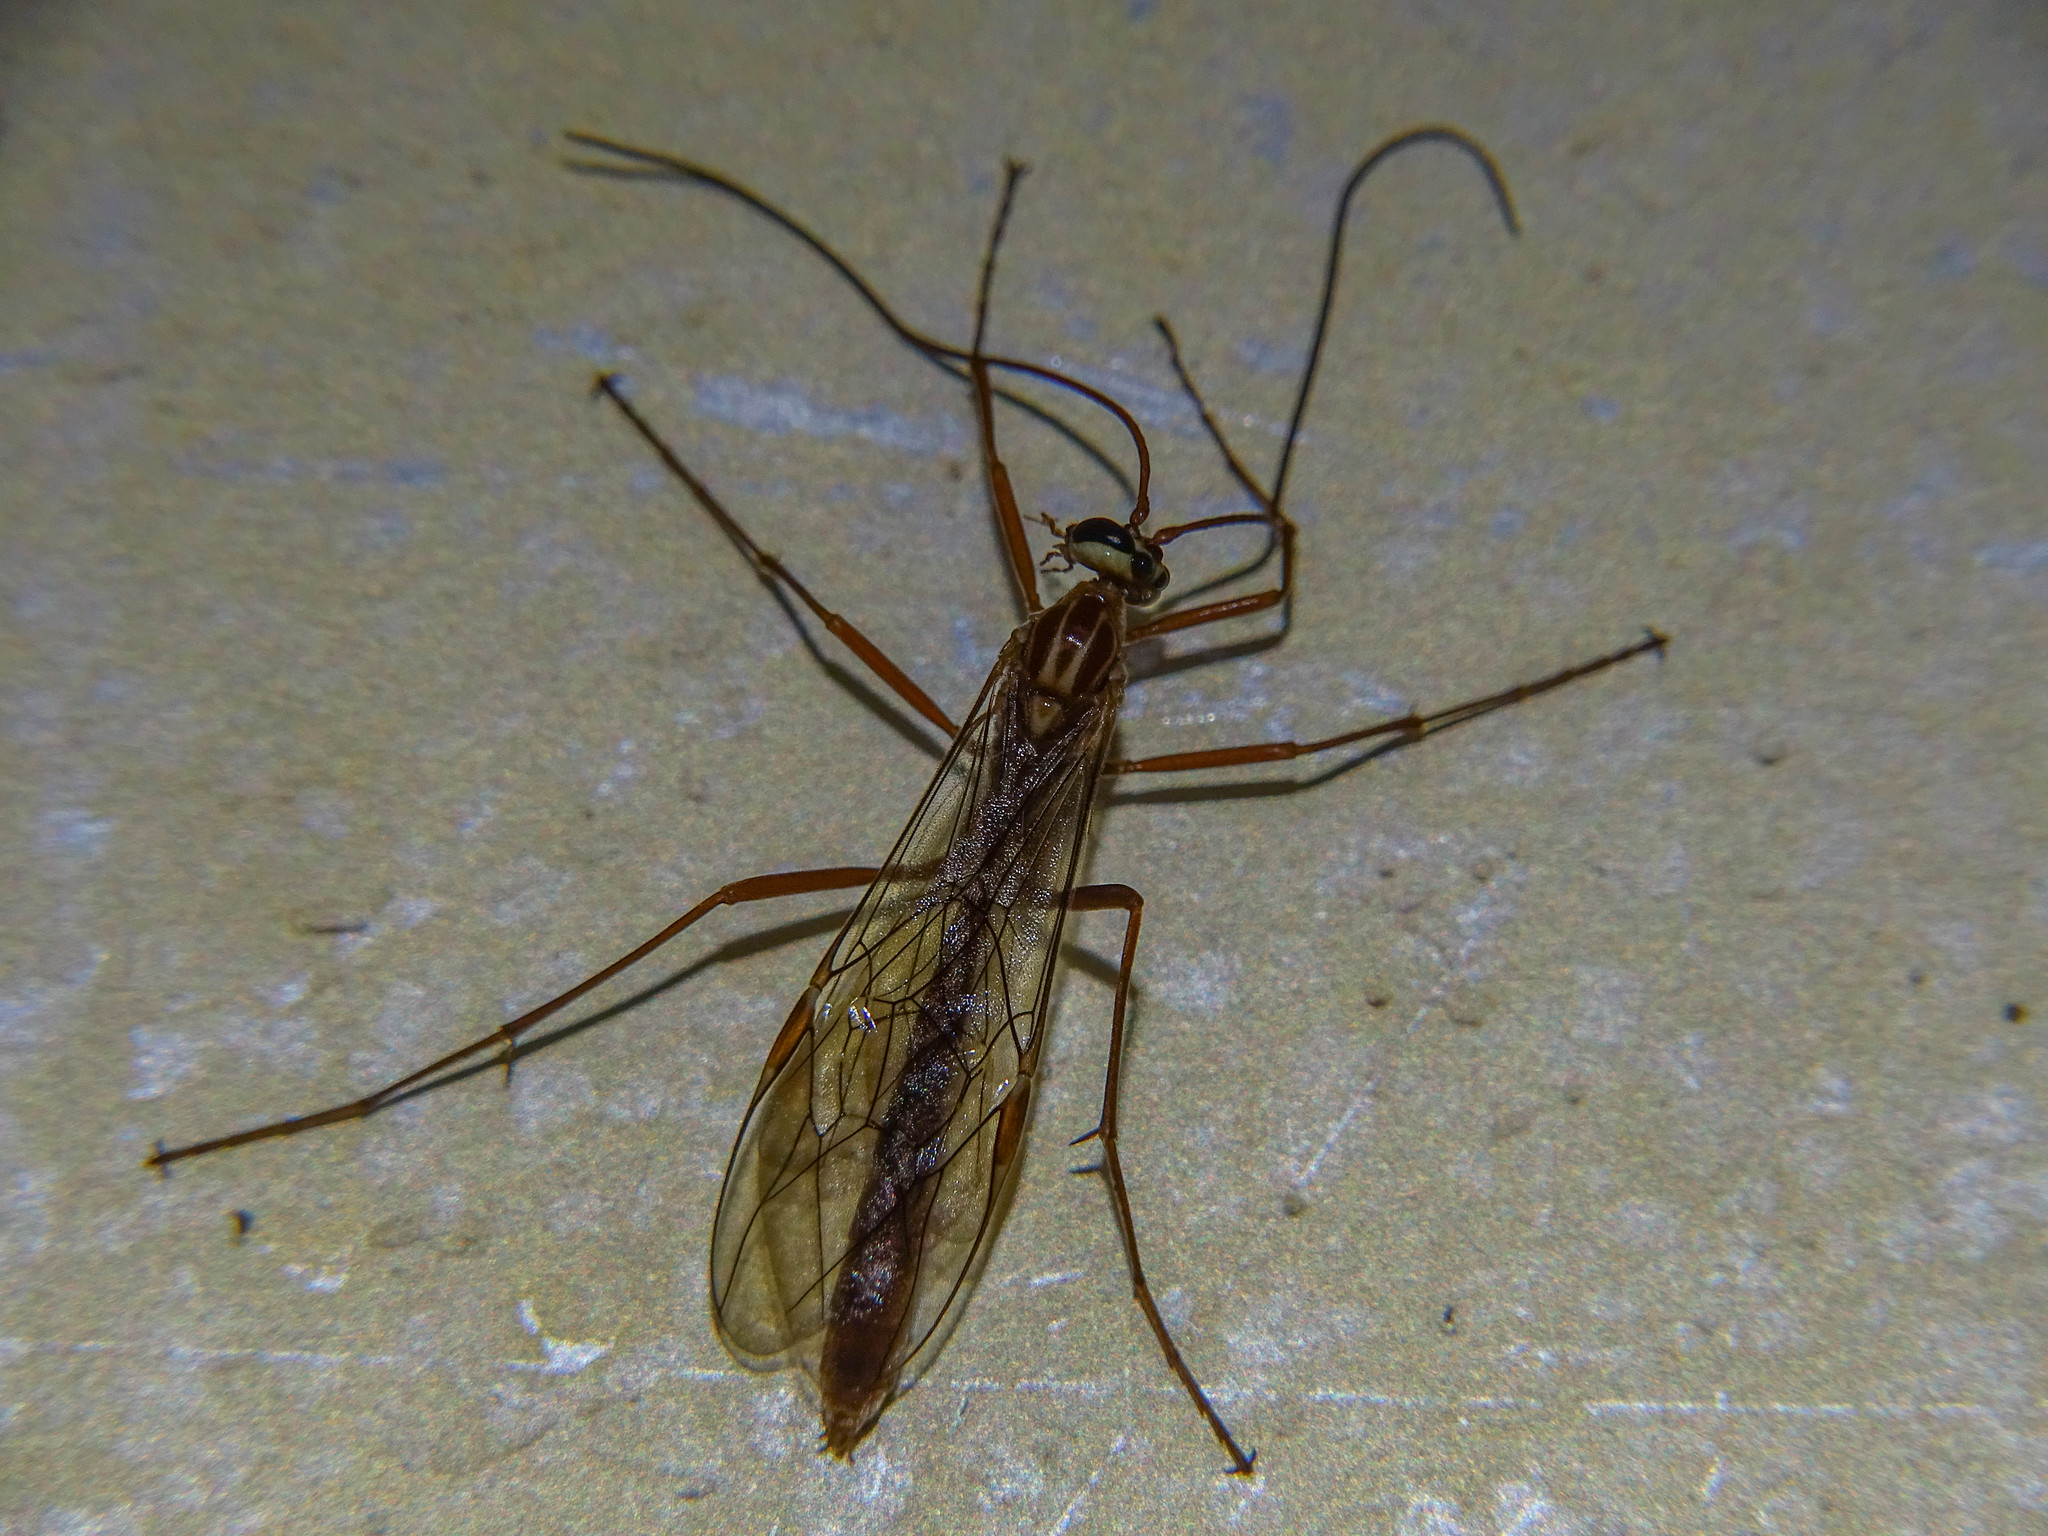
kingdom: Animalia
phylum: Arthropoda
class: Insecta
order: Hymenoptera
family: Ichneumonidae
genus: Ophion
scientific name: Ophion
